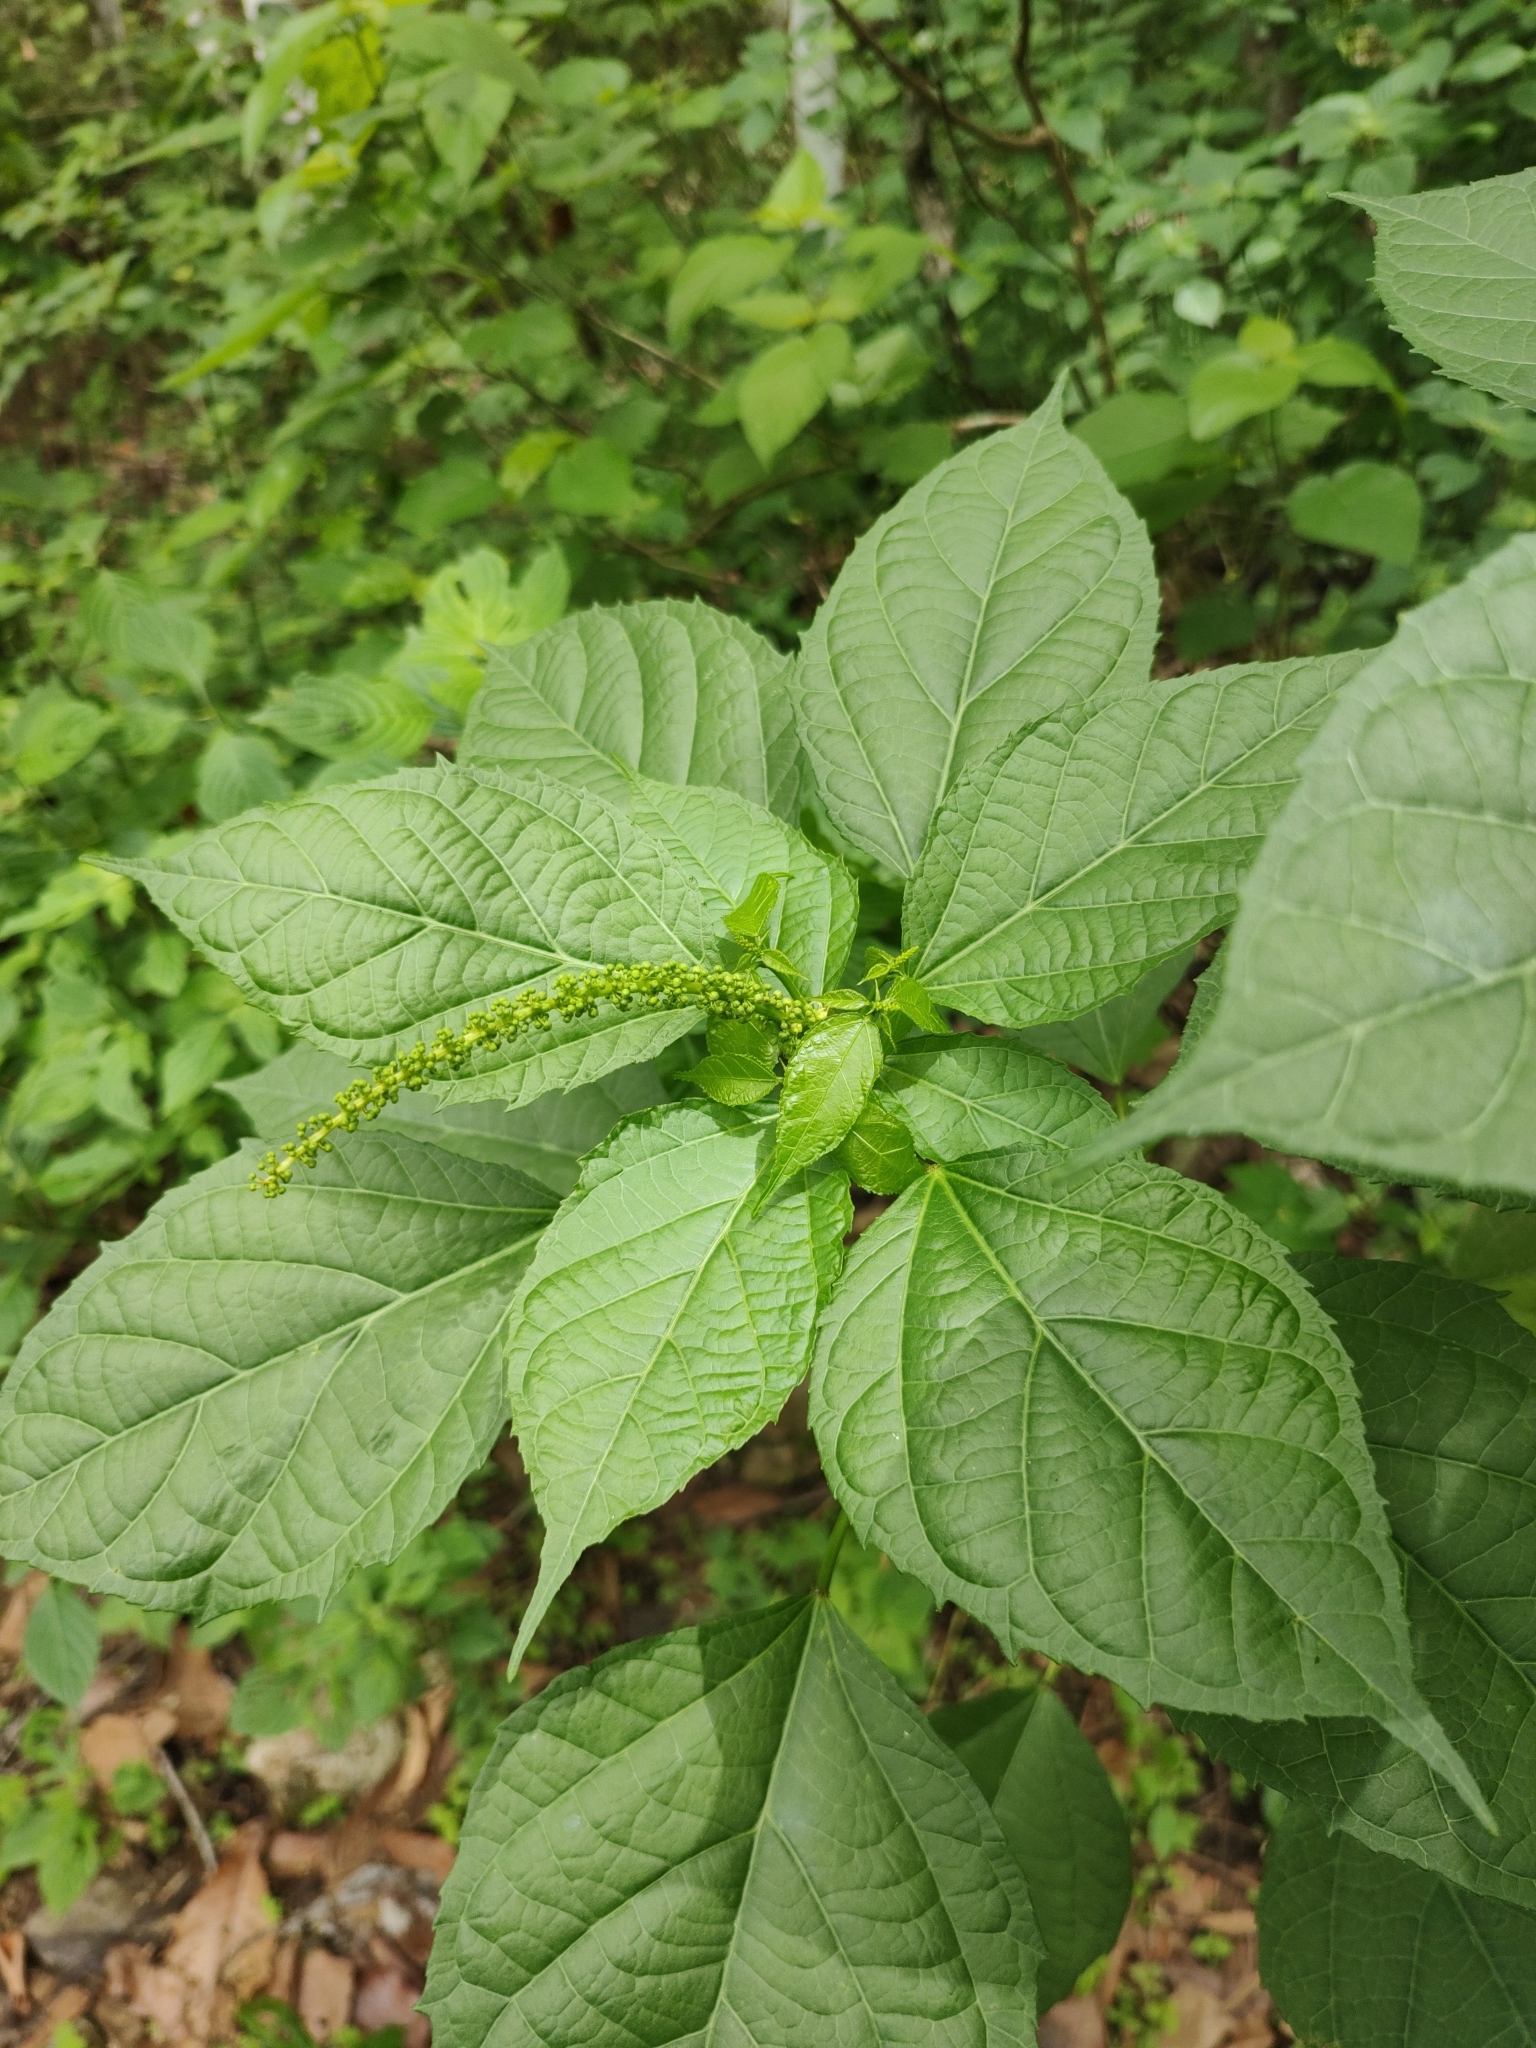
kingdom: Plantae
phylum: Tracheophyta
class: Magnoliopsida
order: Malpighiales
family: Euphorbiaceae
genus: Croton
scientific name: Croton ynesae
